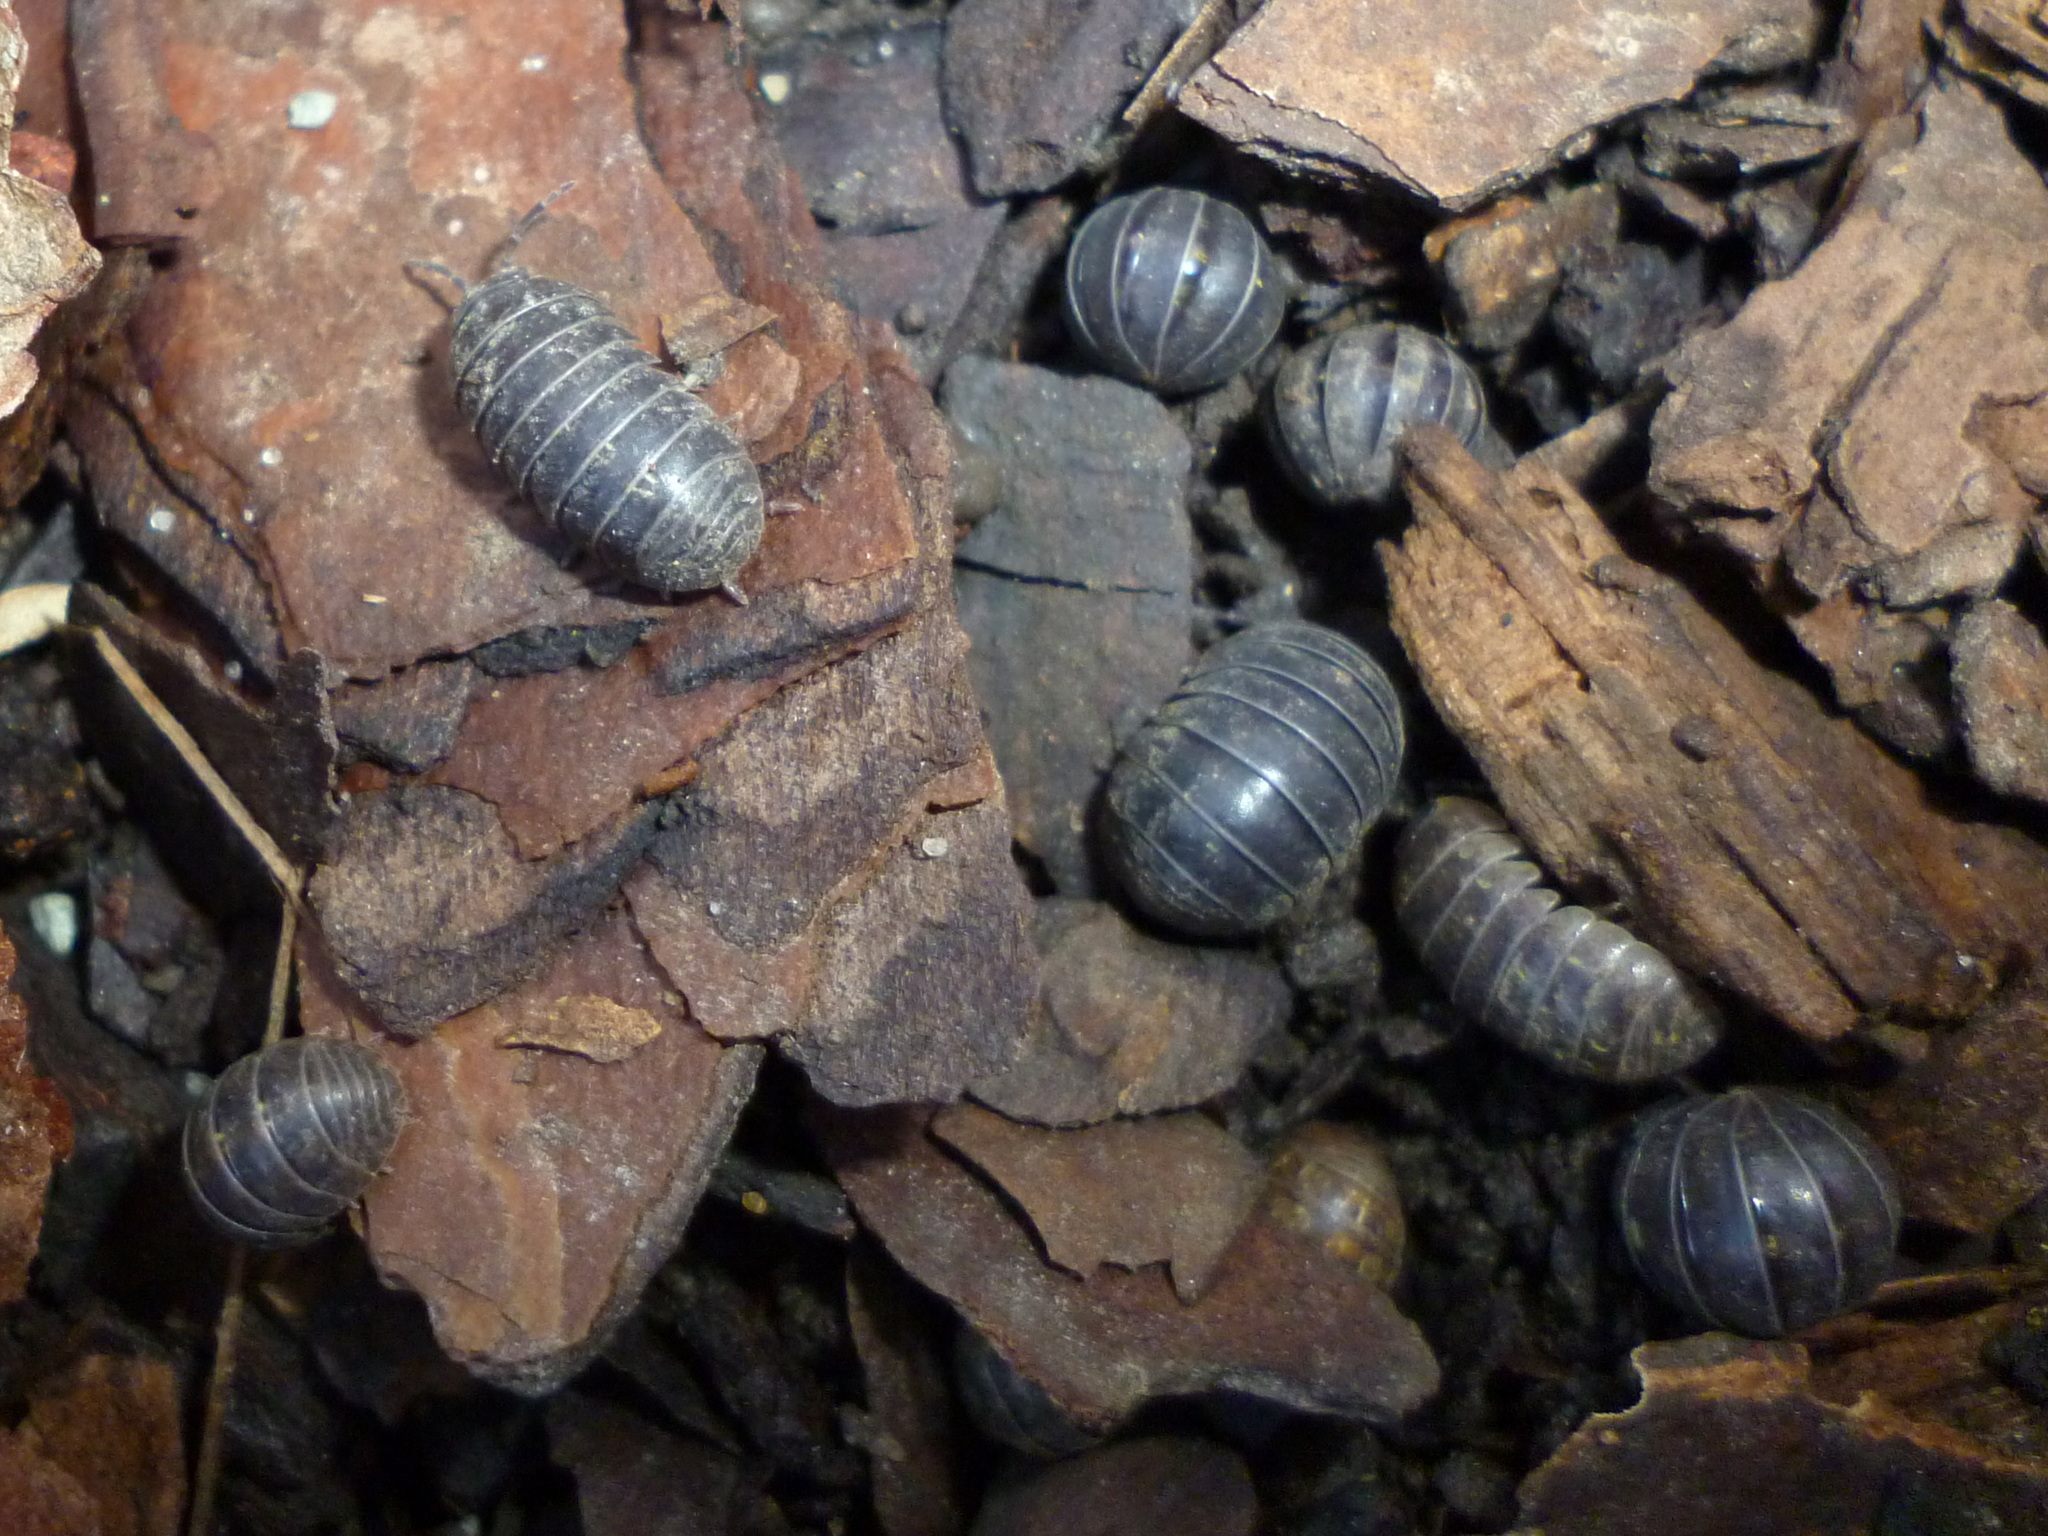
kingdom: Animalia
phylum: Arthropoda
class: Malacostraca
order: Isopoda
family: Armadillidiidae
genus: Armadillidium
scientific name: Armadillidium vulgare
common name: Common pill woodlouse
